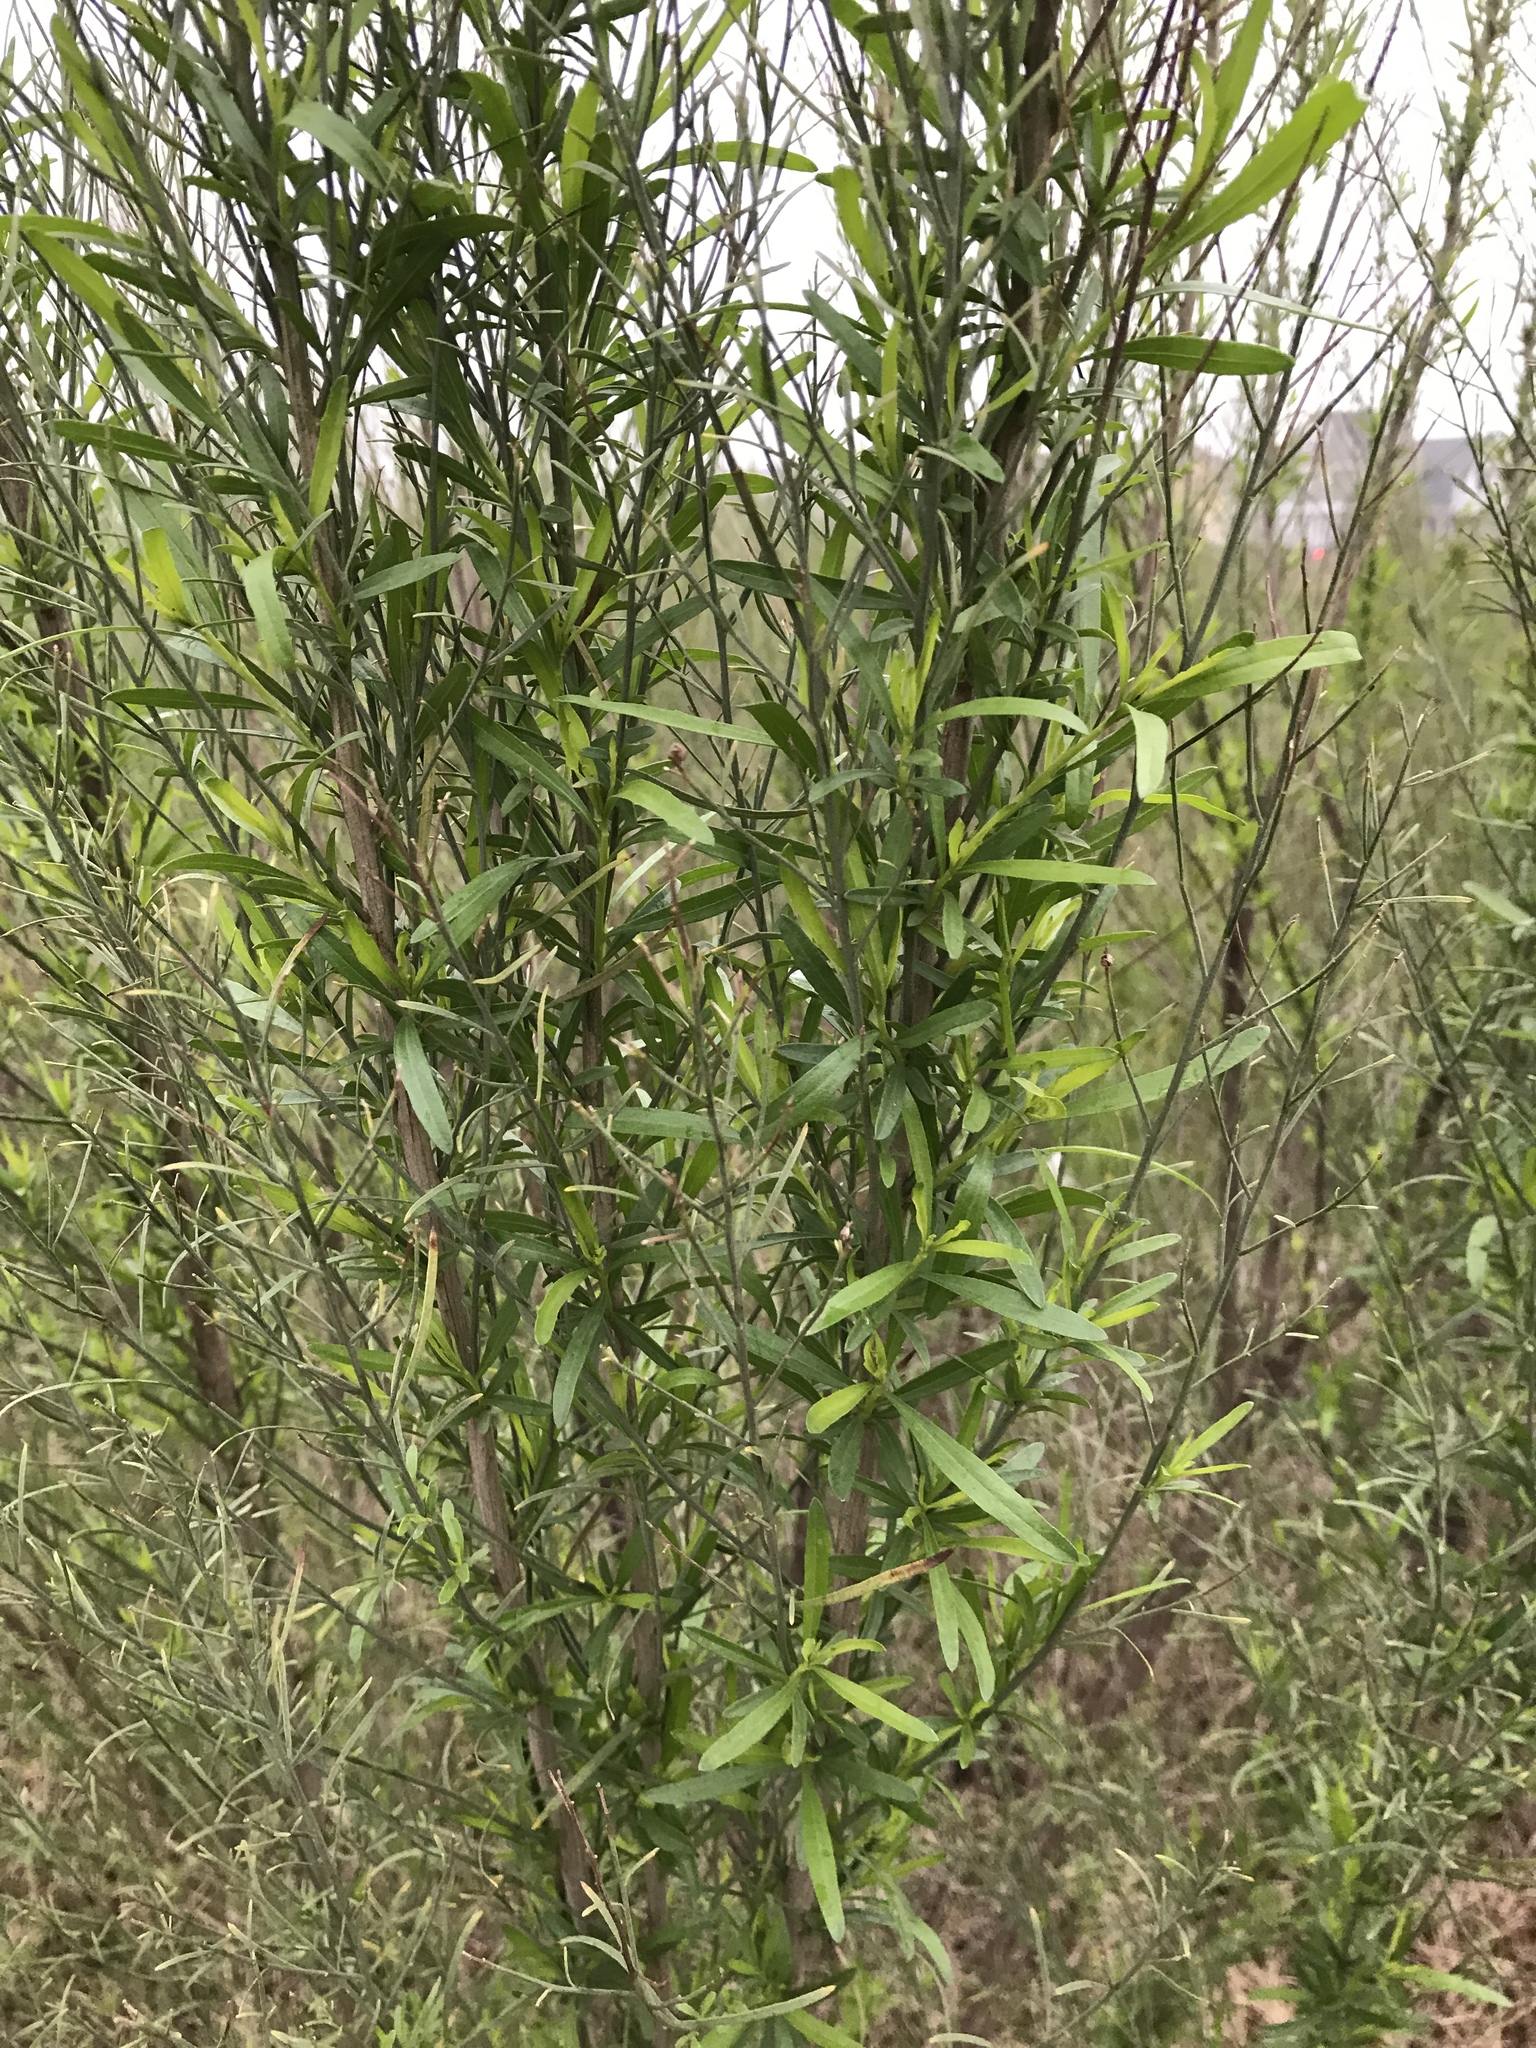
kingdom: Plantae
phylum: Tracheophyta
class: Magnoliopsida
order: Asterales
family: Asteraceae
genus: Baccharis
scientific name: Baccharis neglecta
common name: Roosevelt-weed
